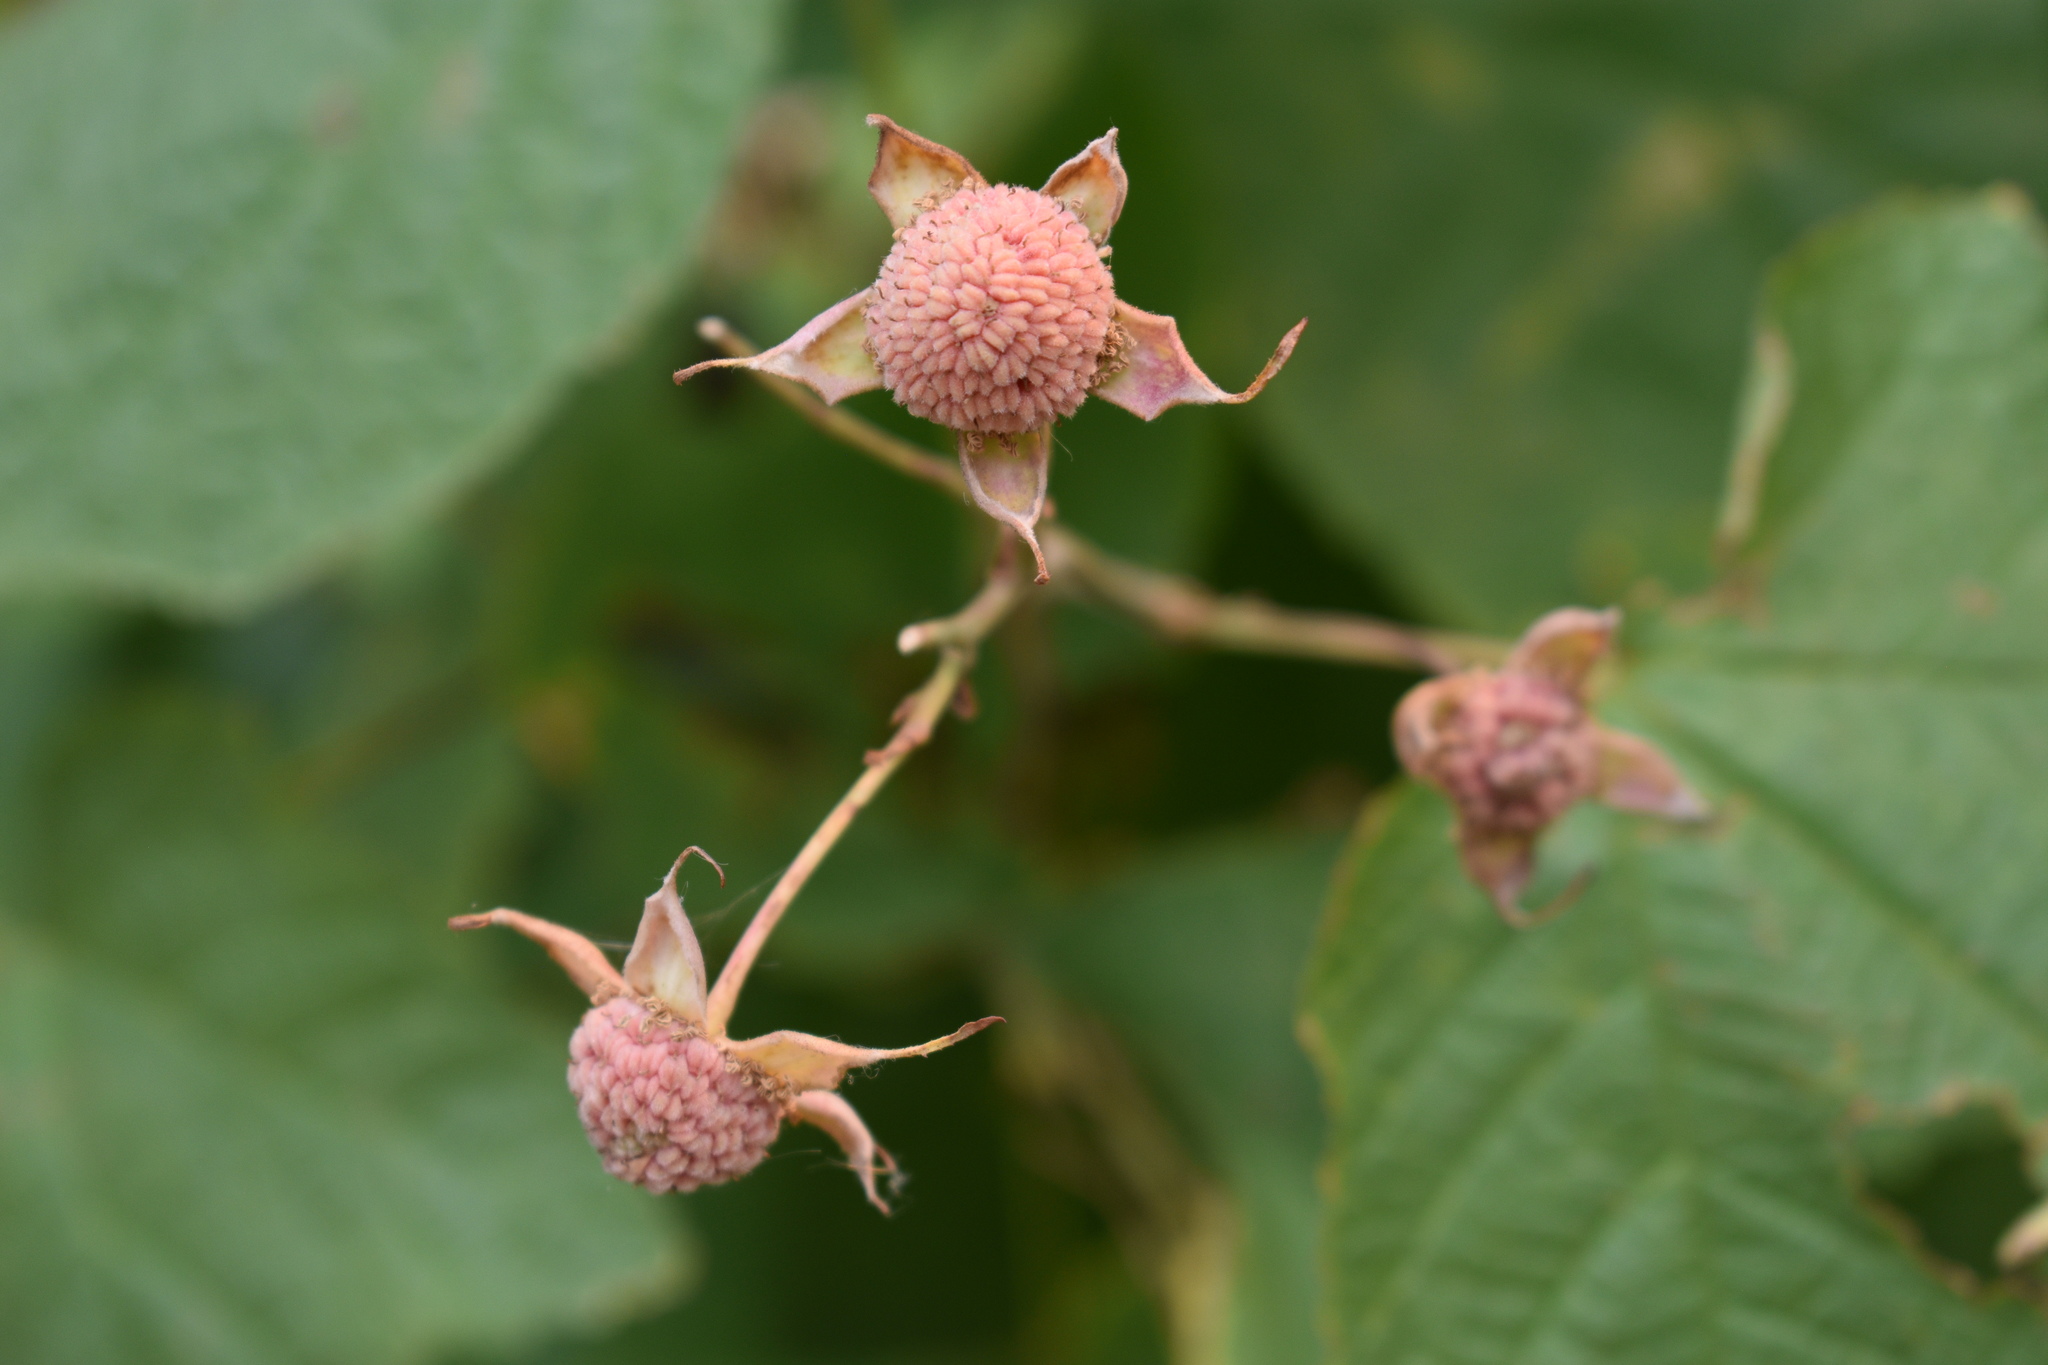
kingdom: Plantae
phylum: Tracheophyta
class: Magnoliopsida
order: Rosales
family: Rosaceae
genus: Rubus
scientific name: Rubus parviflorus
